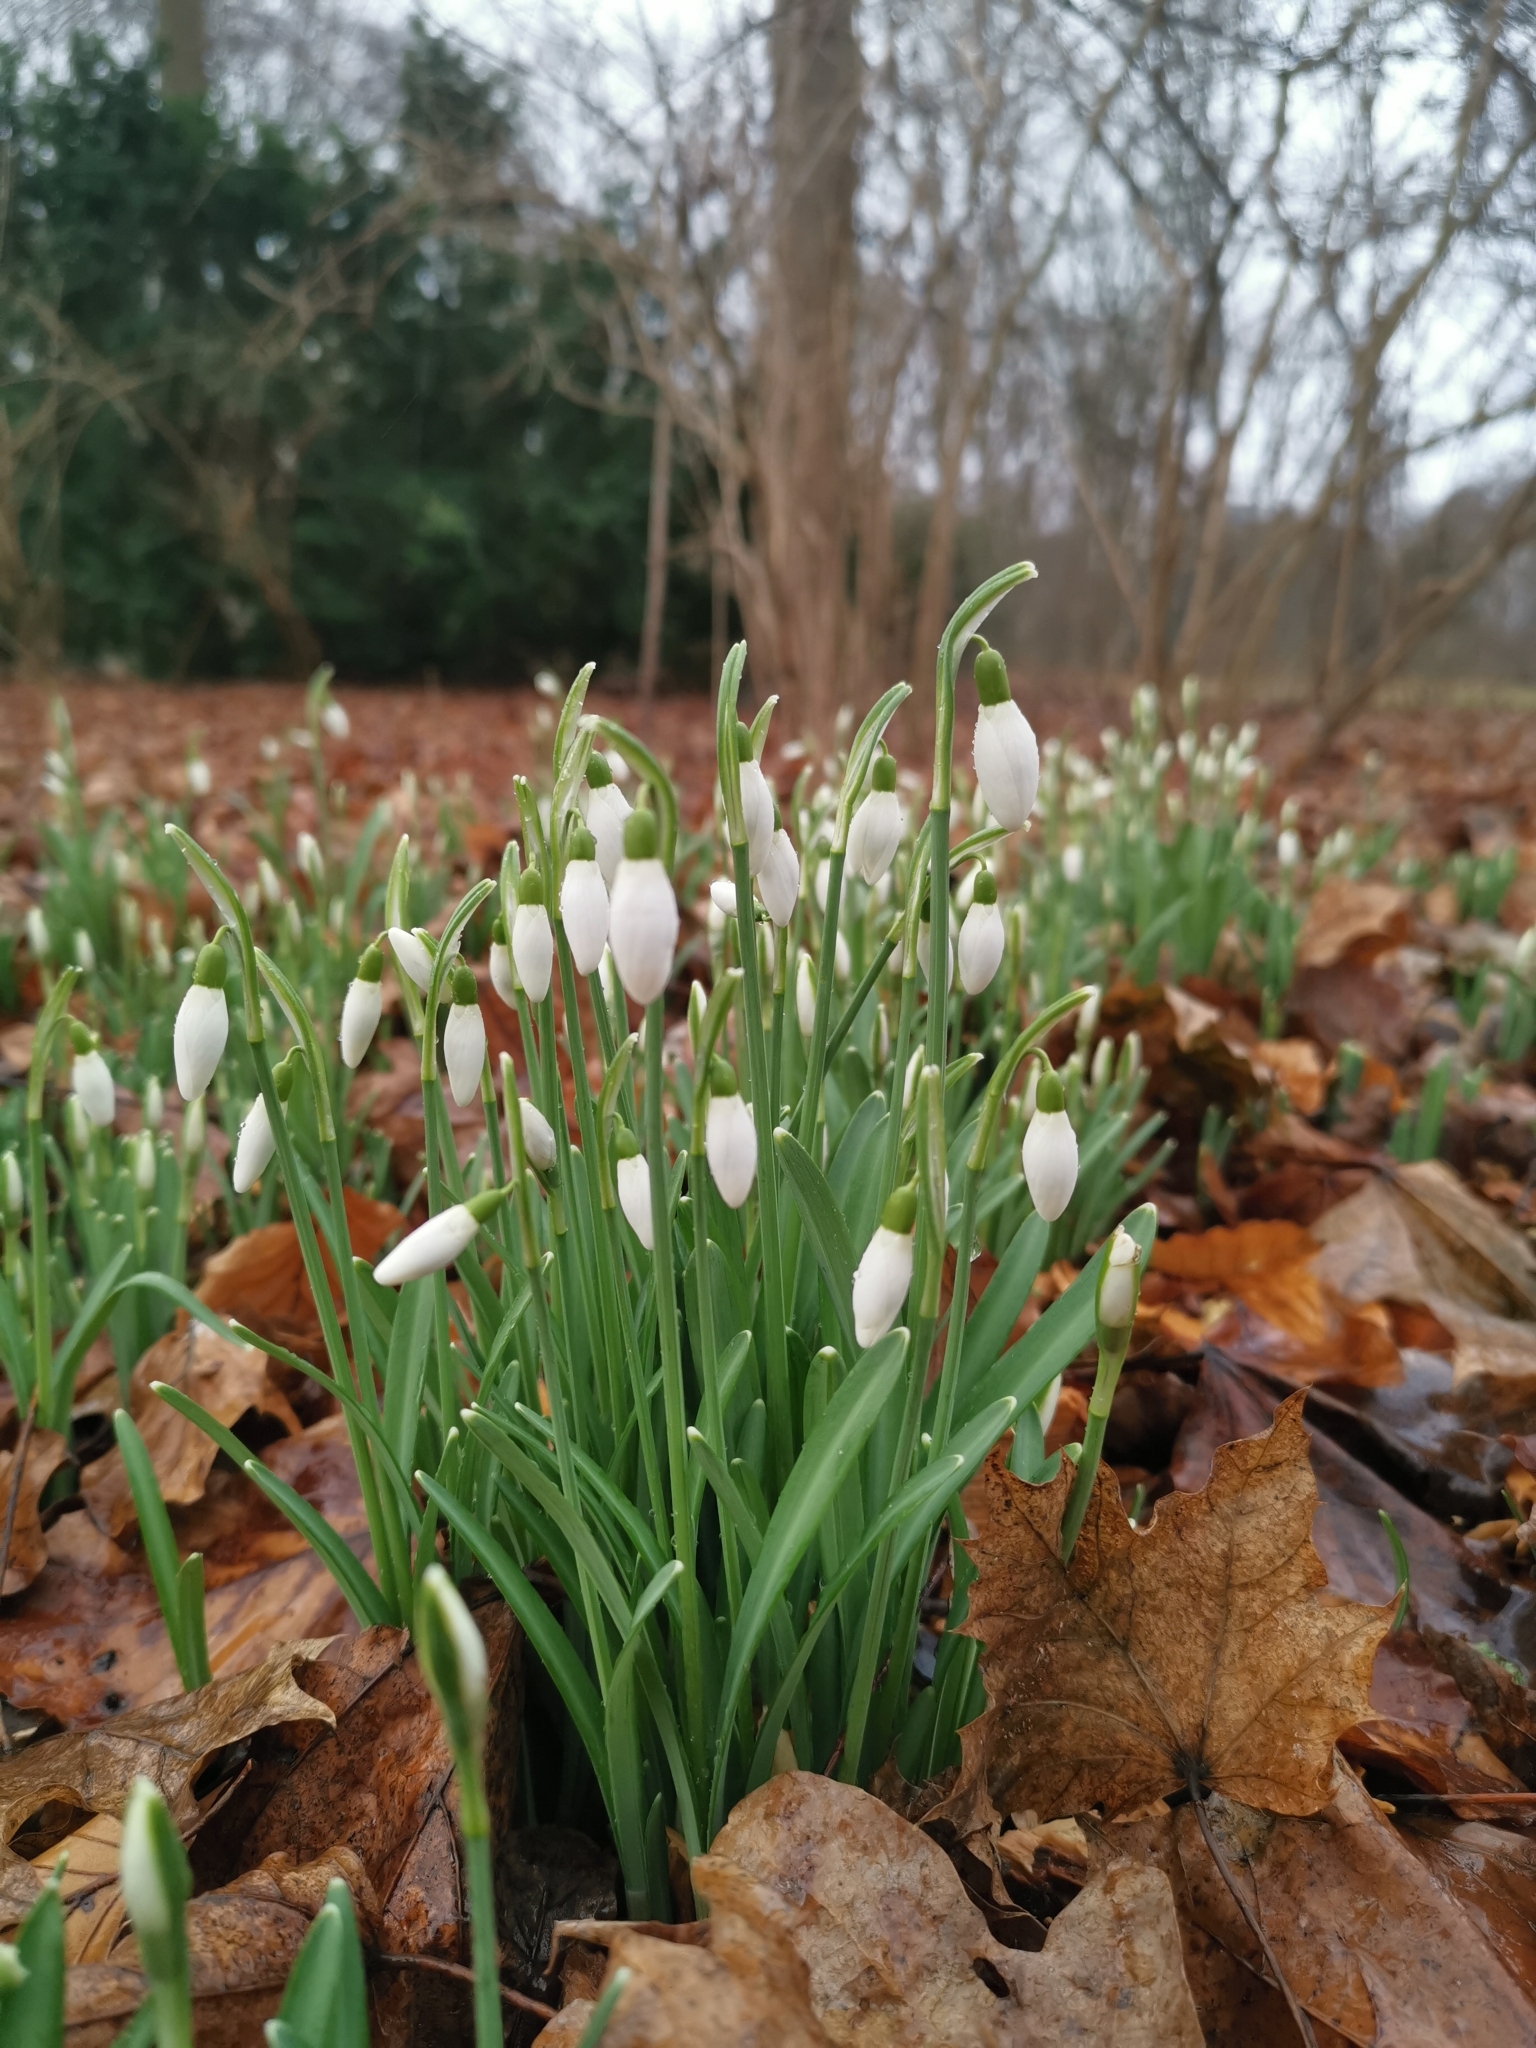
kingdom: Plantae
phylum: Tracheophyta
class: Liliopsida
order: Asparagales
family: Amaryllidaceae
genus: Galanthus
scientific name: Galanthus nivalis
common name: Snowdrop
